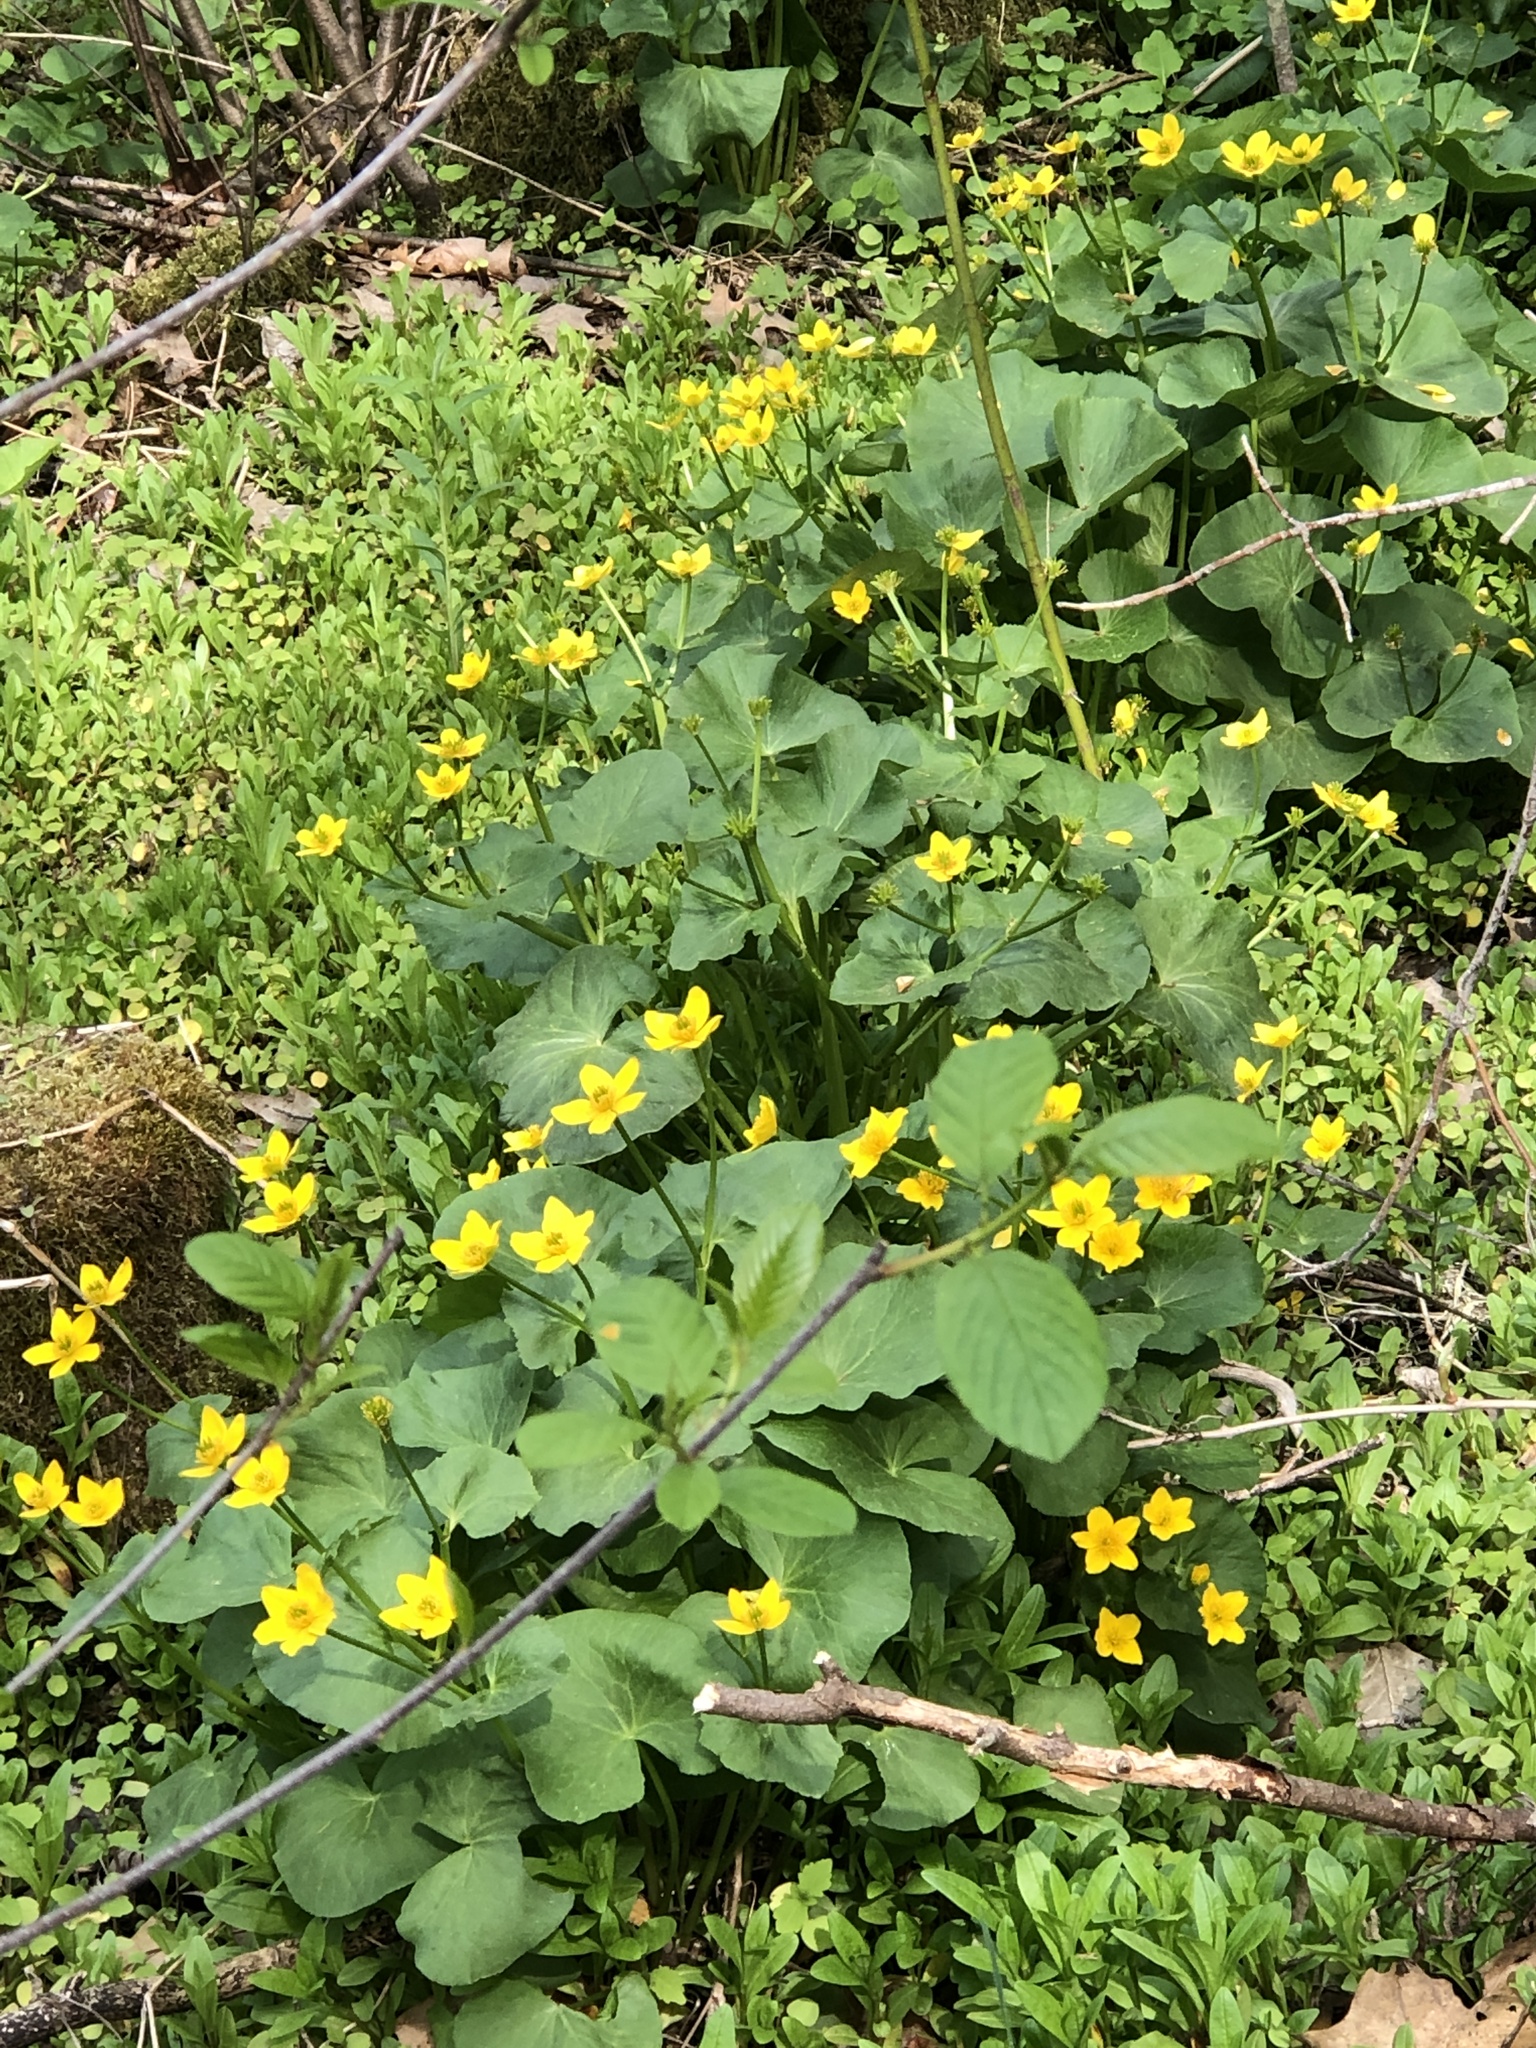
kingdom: Plantae
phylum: Tracheophyta
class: Magnoliopsida
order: Ranunculales
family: Ranunculaceae
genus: Caltha
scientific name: Caltha palustris
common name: Marsh marigold
